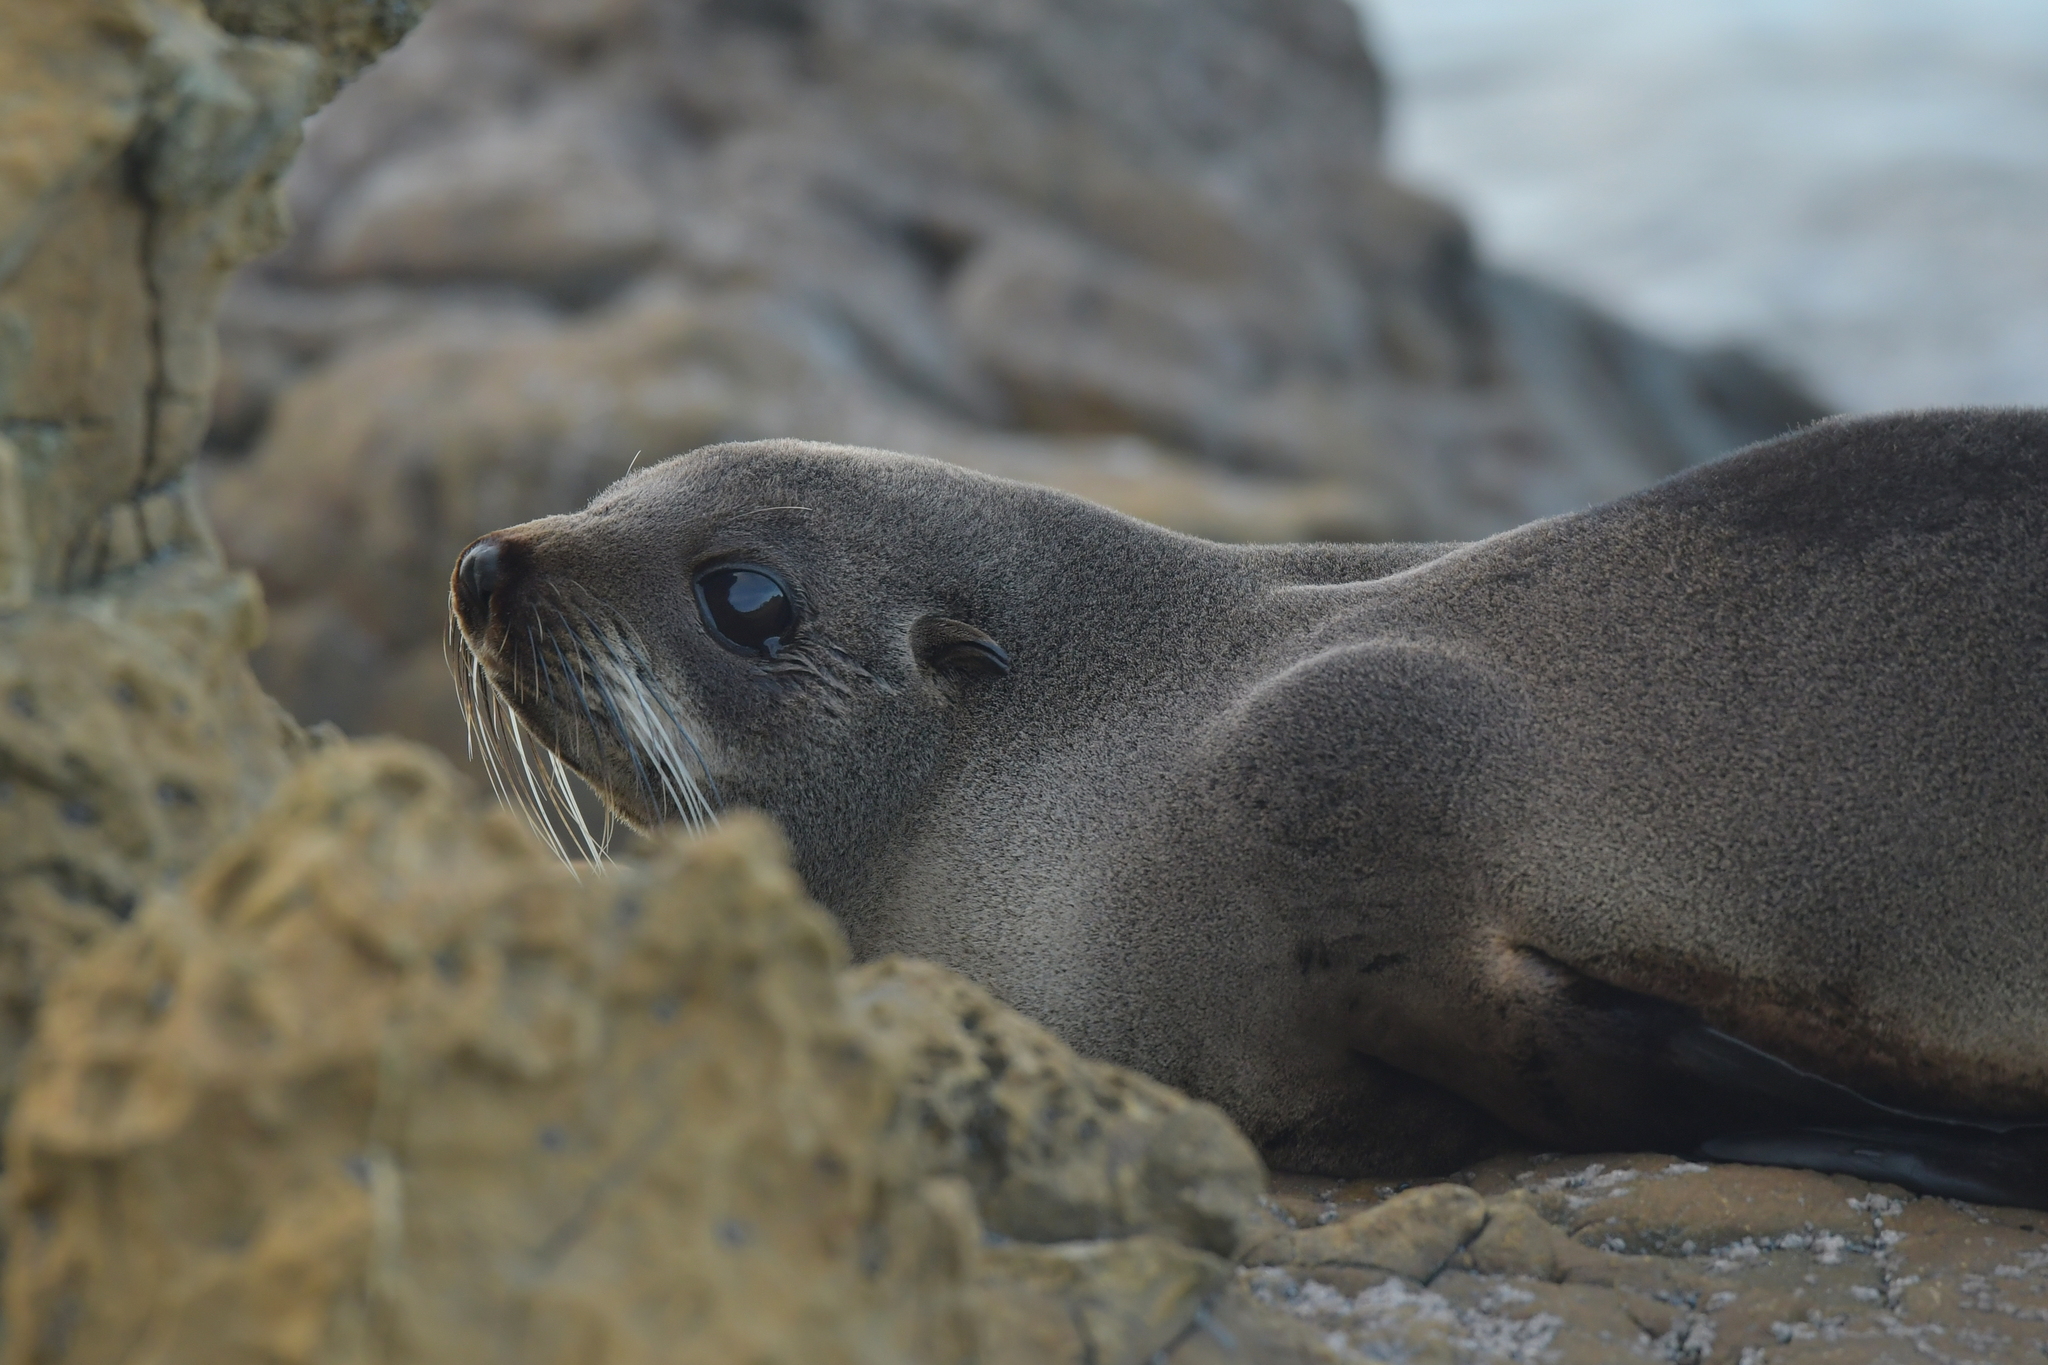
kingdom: Animalia
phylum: Chordata
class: Mammalia
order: Carnivora
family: Otariidae
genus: Arctocephalus
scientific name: Arctocephalus forsteri
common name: New zealand fur seal
